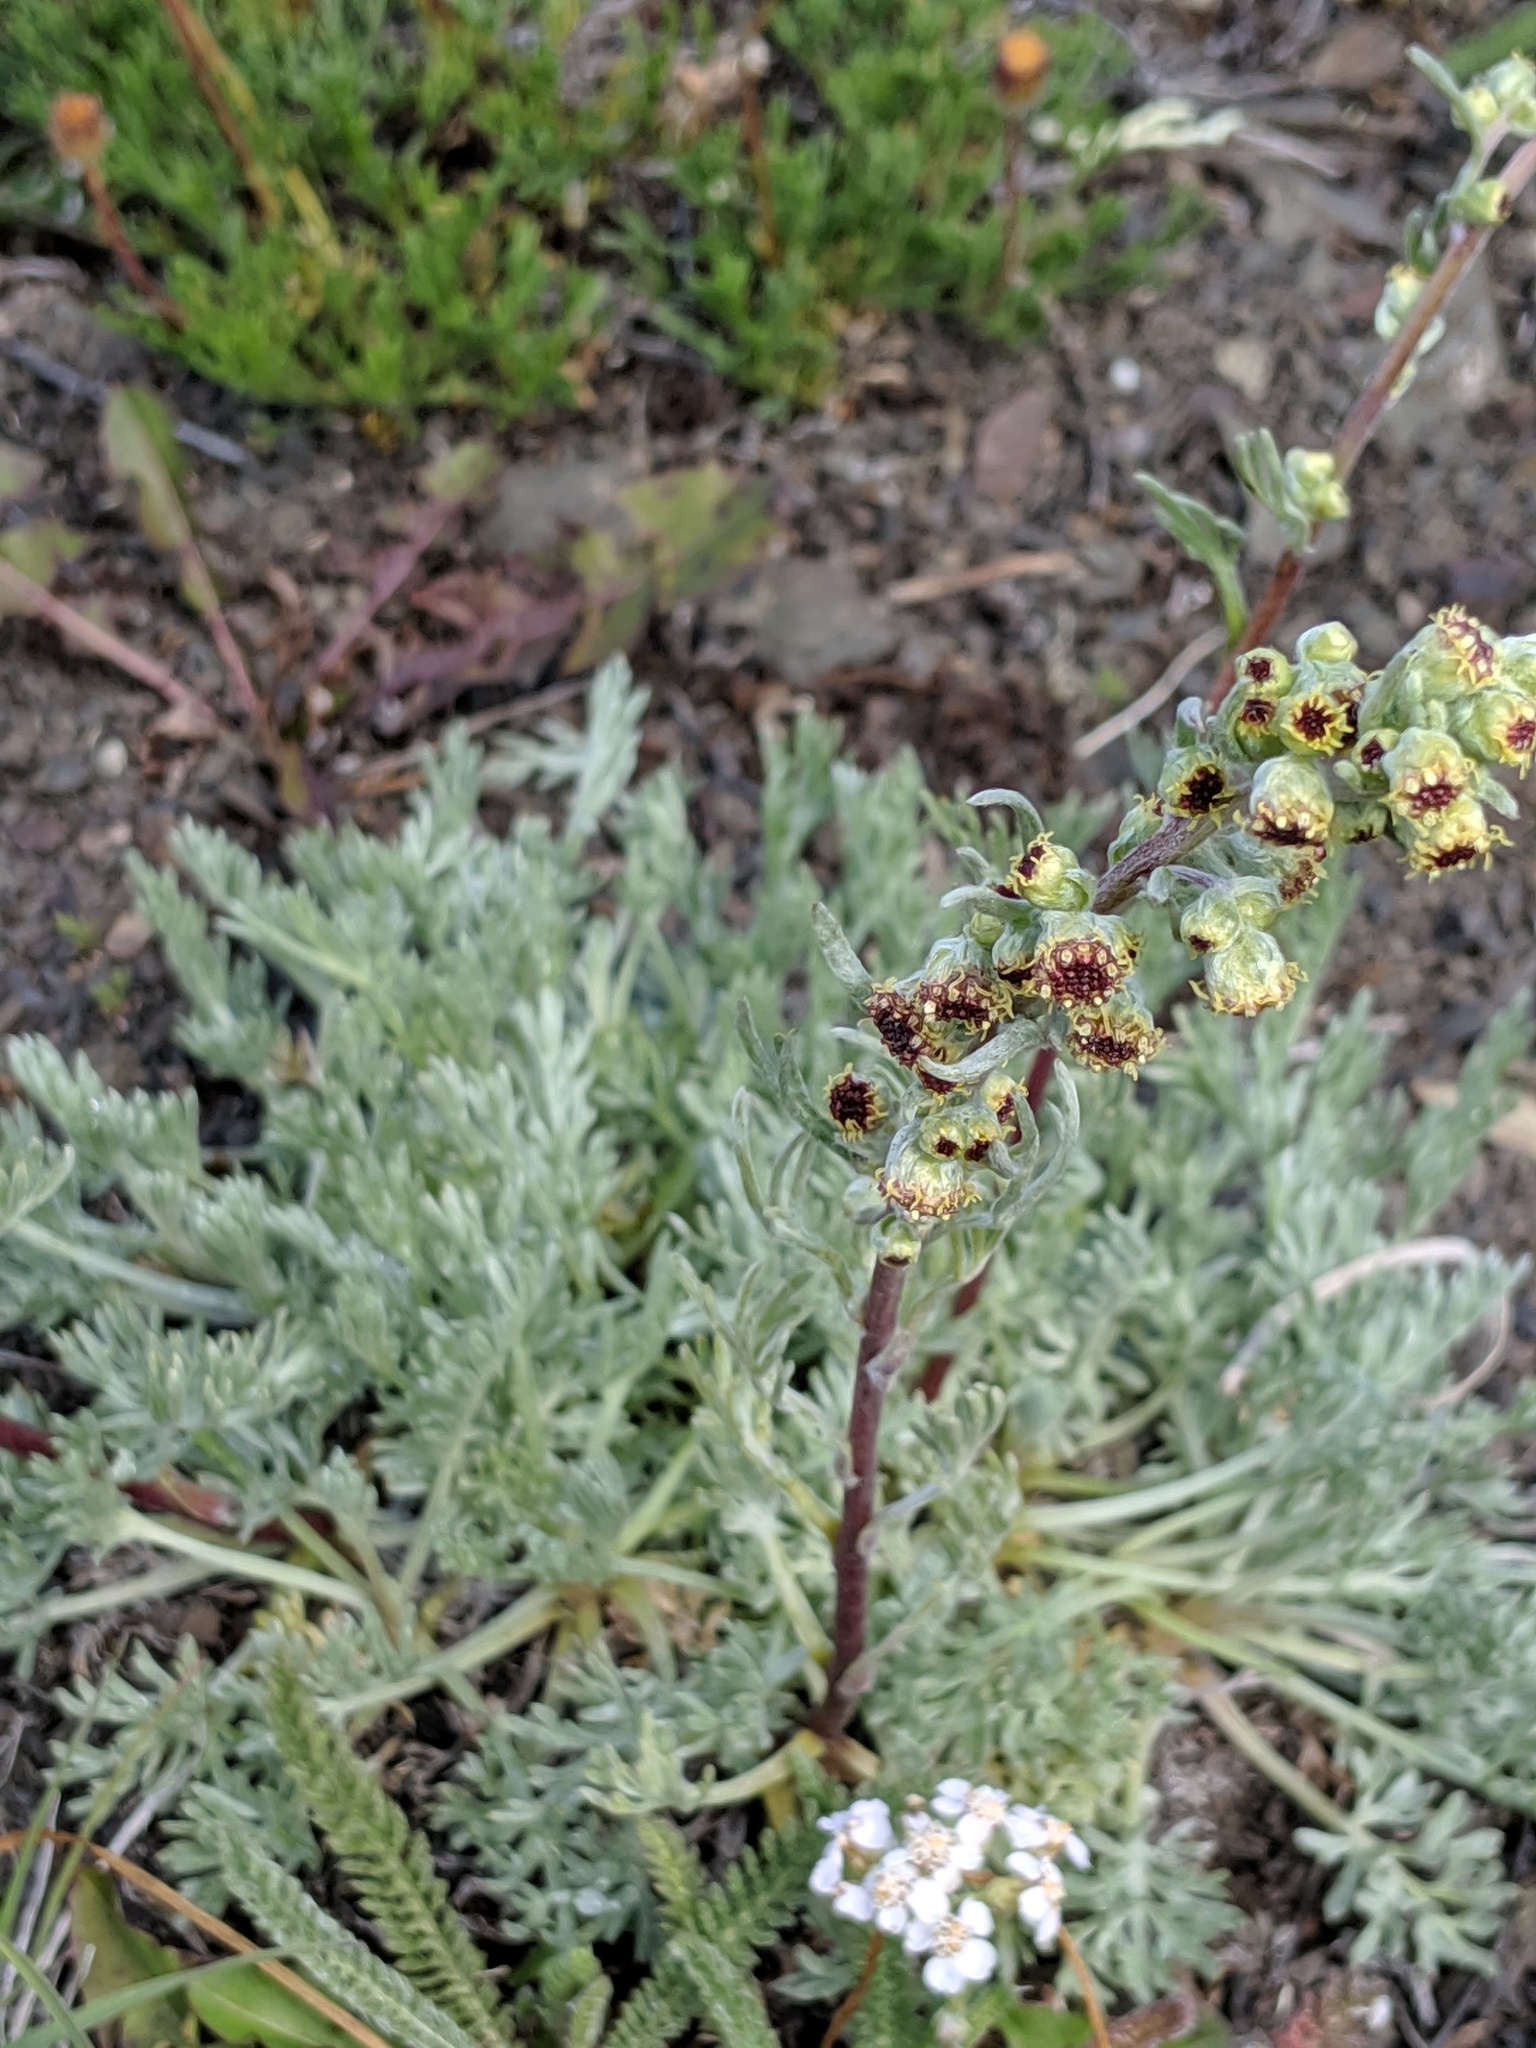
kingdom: Plantae
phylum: Tracheophyta
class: Magnoliopsida
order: Asterales
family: Asteraceae
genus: Artemisia
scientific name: Artemisia campestris
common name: Field wormwood
